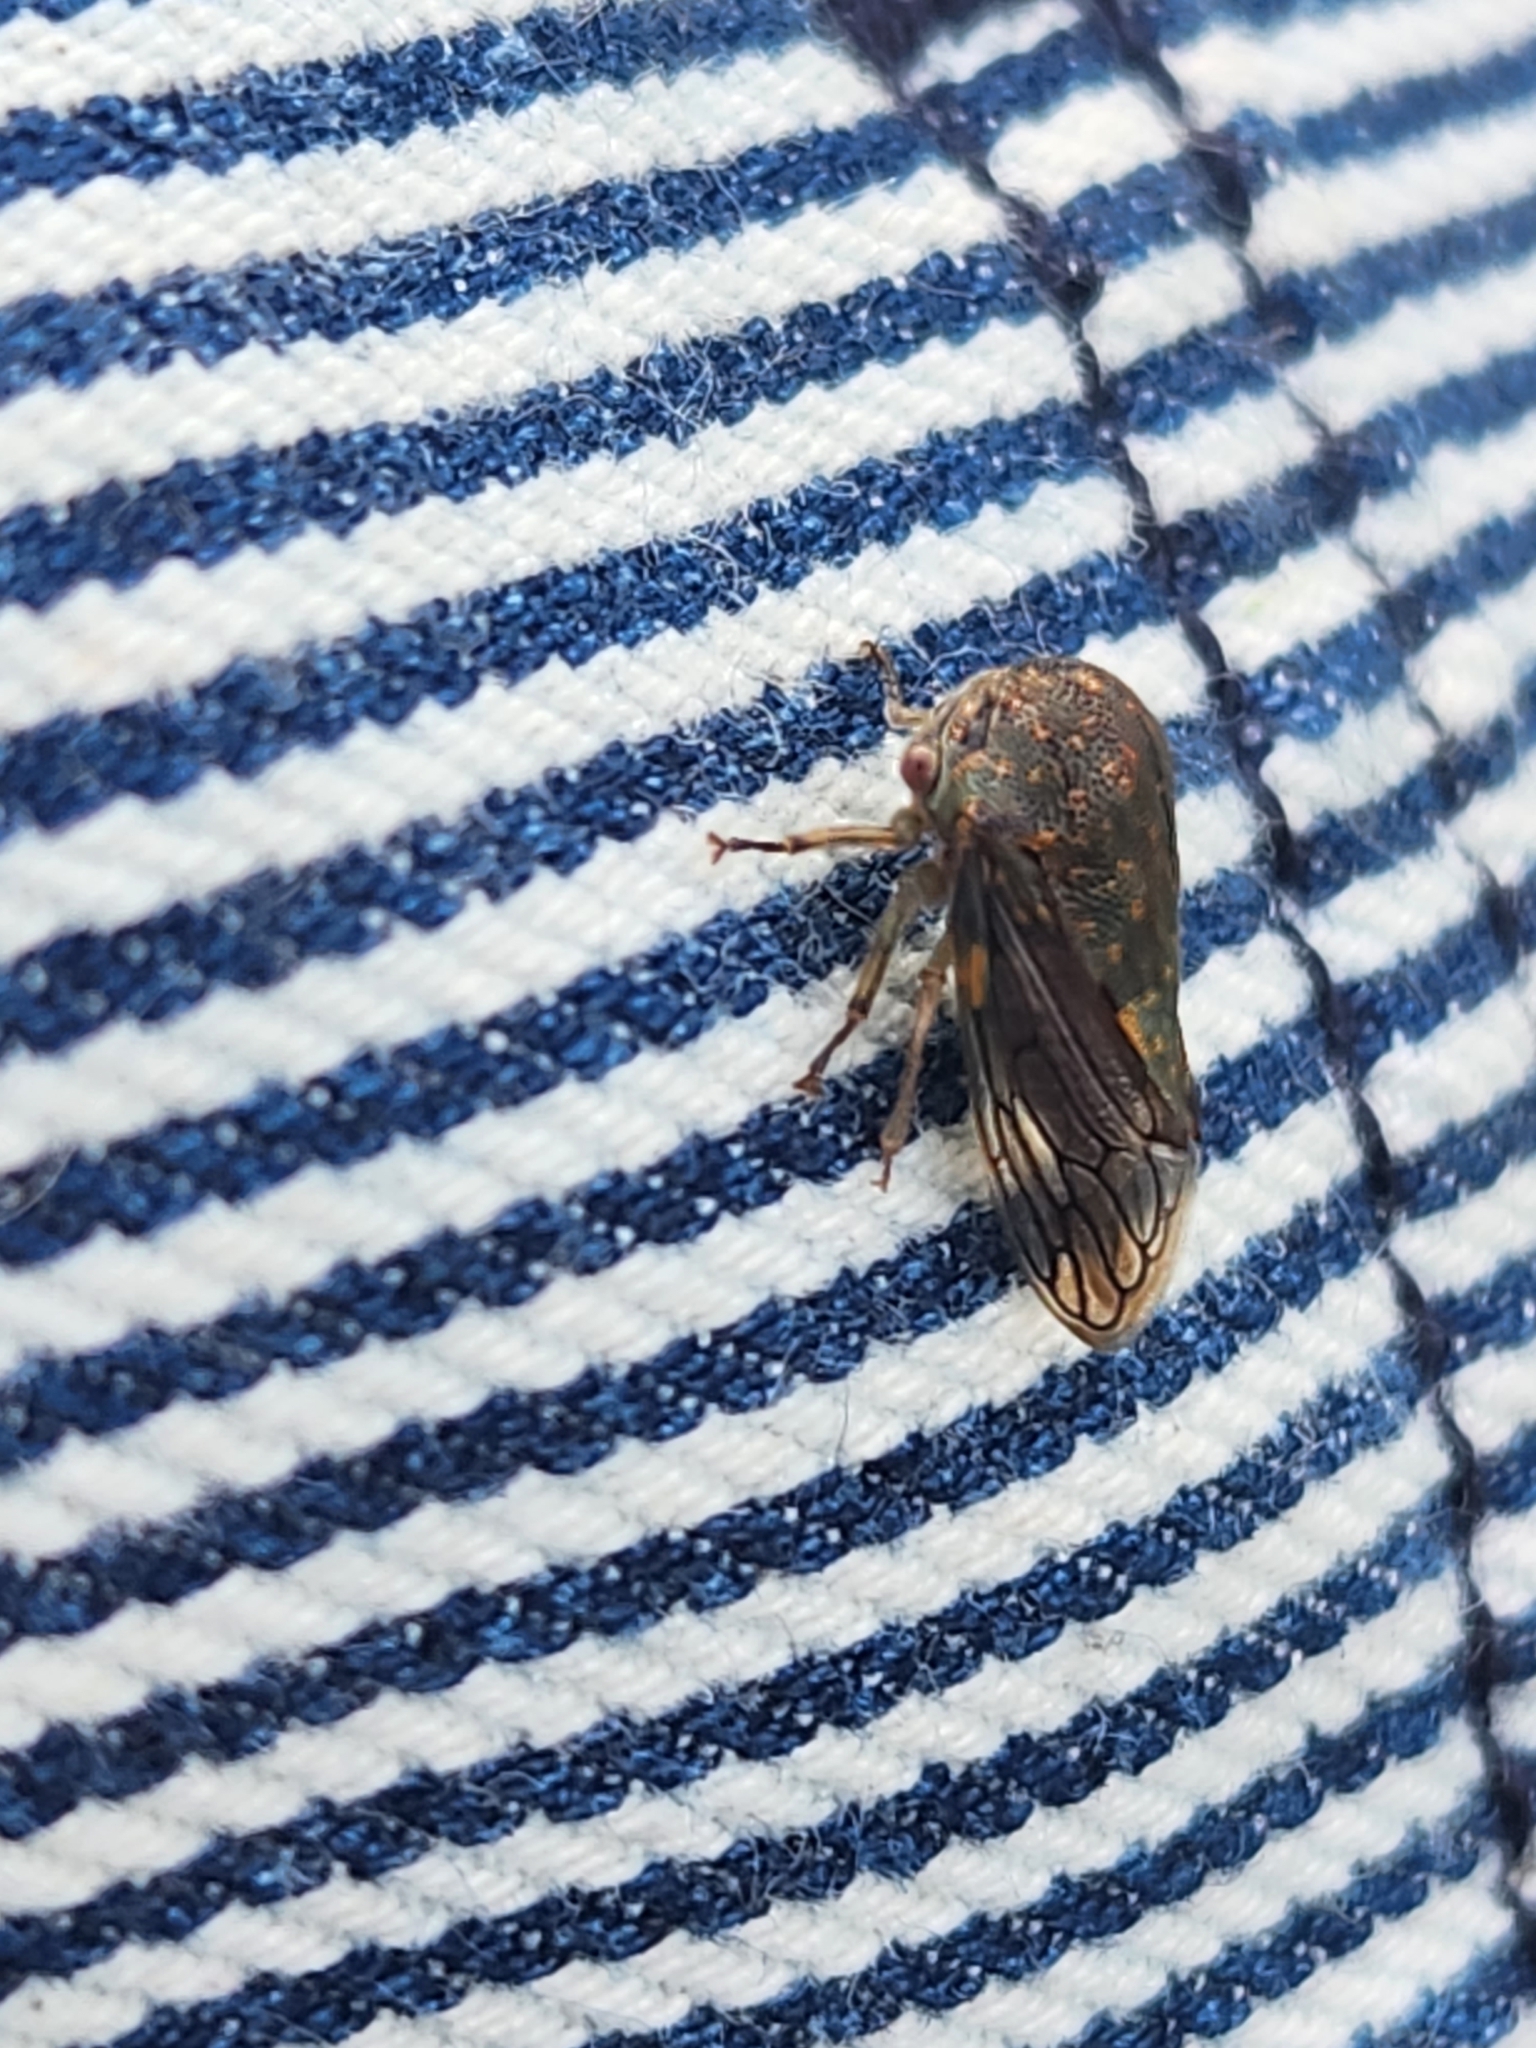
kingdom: Animalia
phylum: Arthropoda
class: Insecta
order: Hemiptera
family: Membracidae
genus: Platycotis
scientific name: Platycotis vittatus
